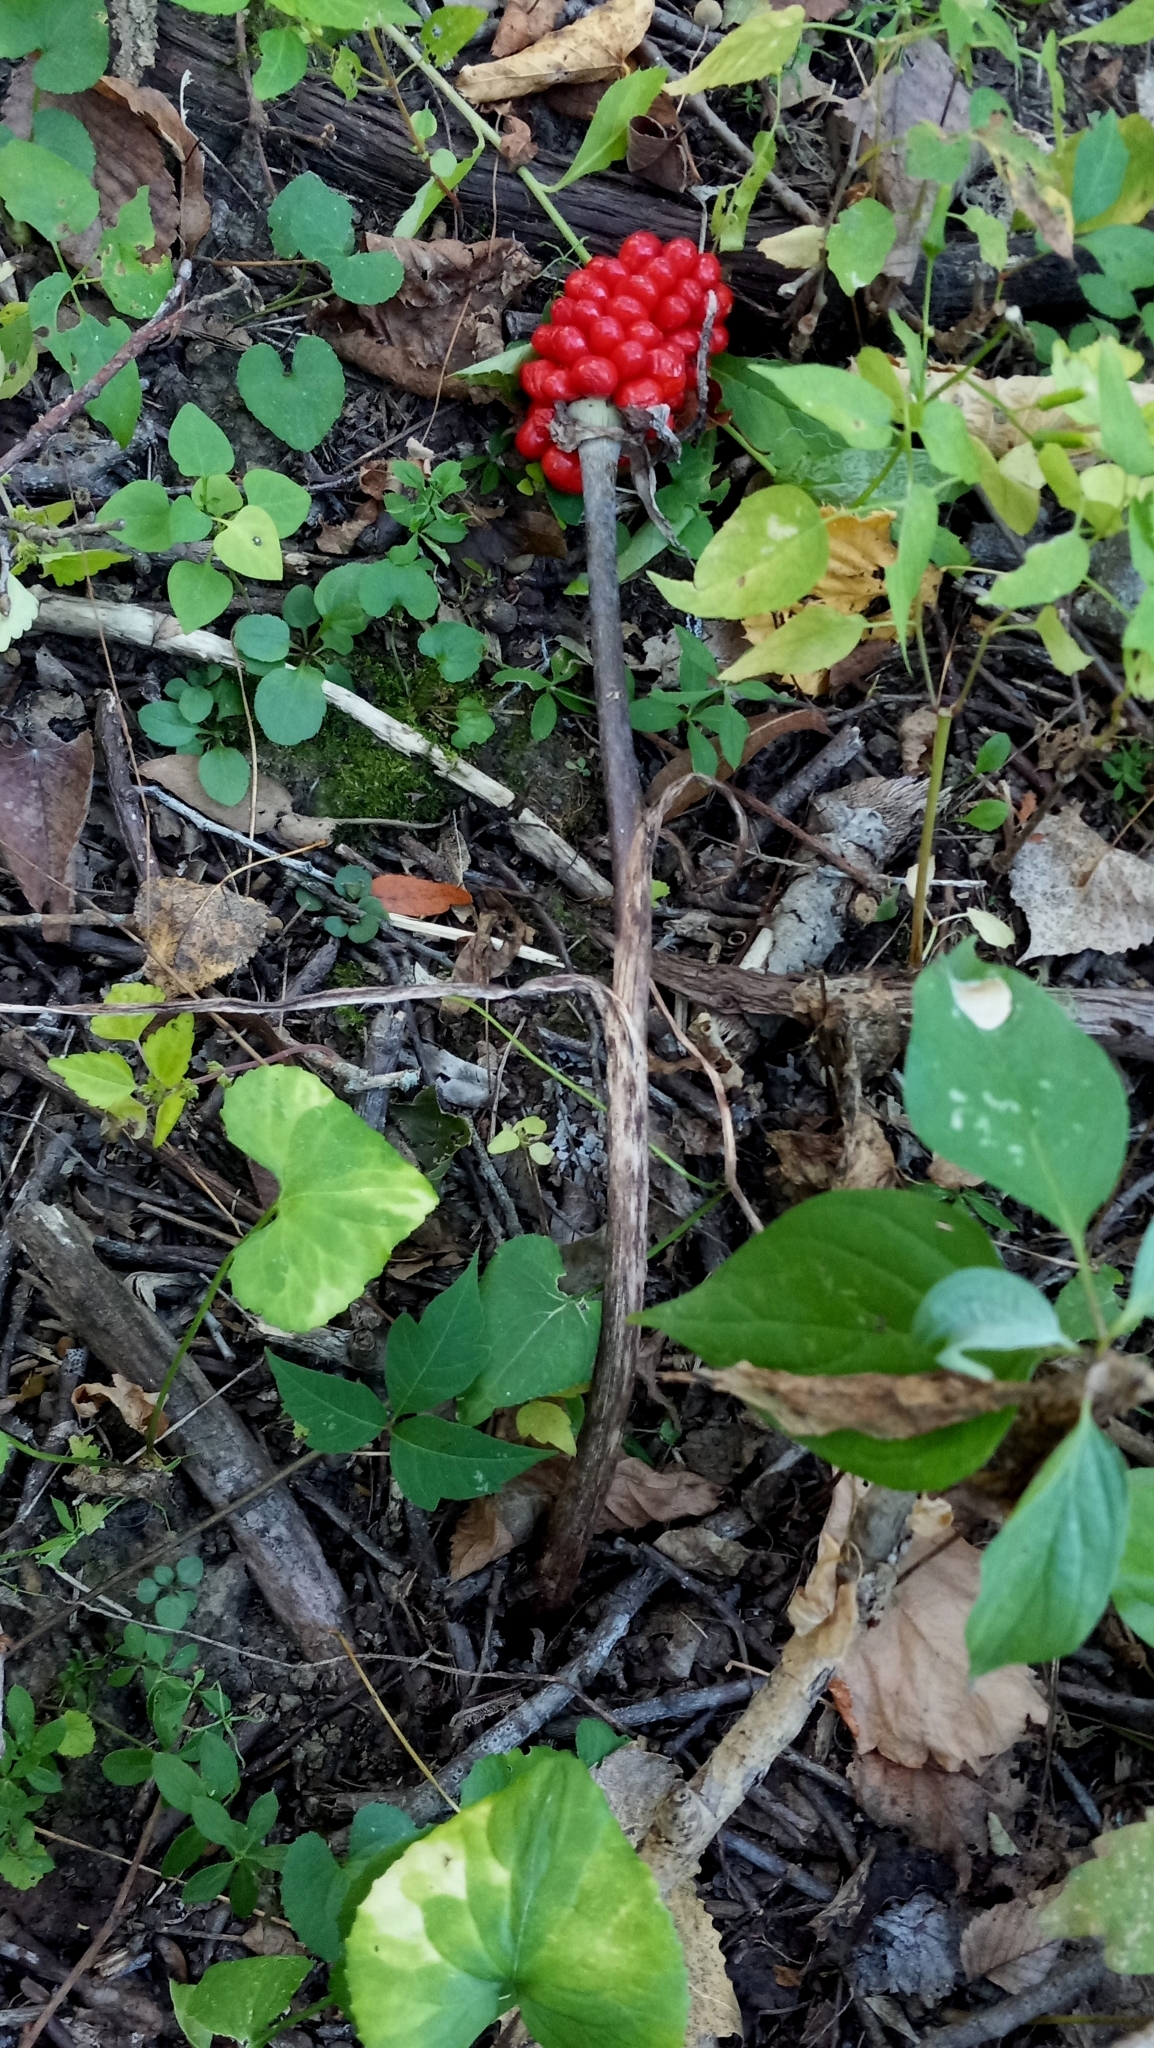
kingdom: Plantae
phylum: Tracheophyta
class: Liliopsida
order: Alismatales
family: Araceae
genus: Arisaema
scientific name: Arisaema triphyllum
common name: Jack-in-the-pulpit
